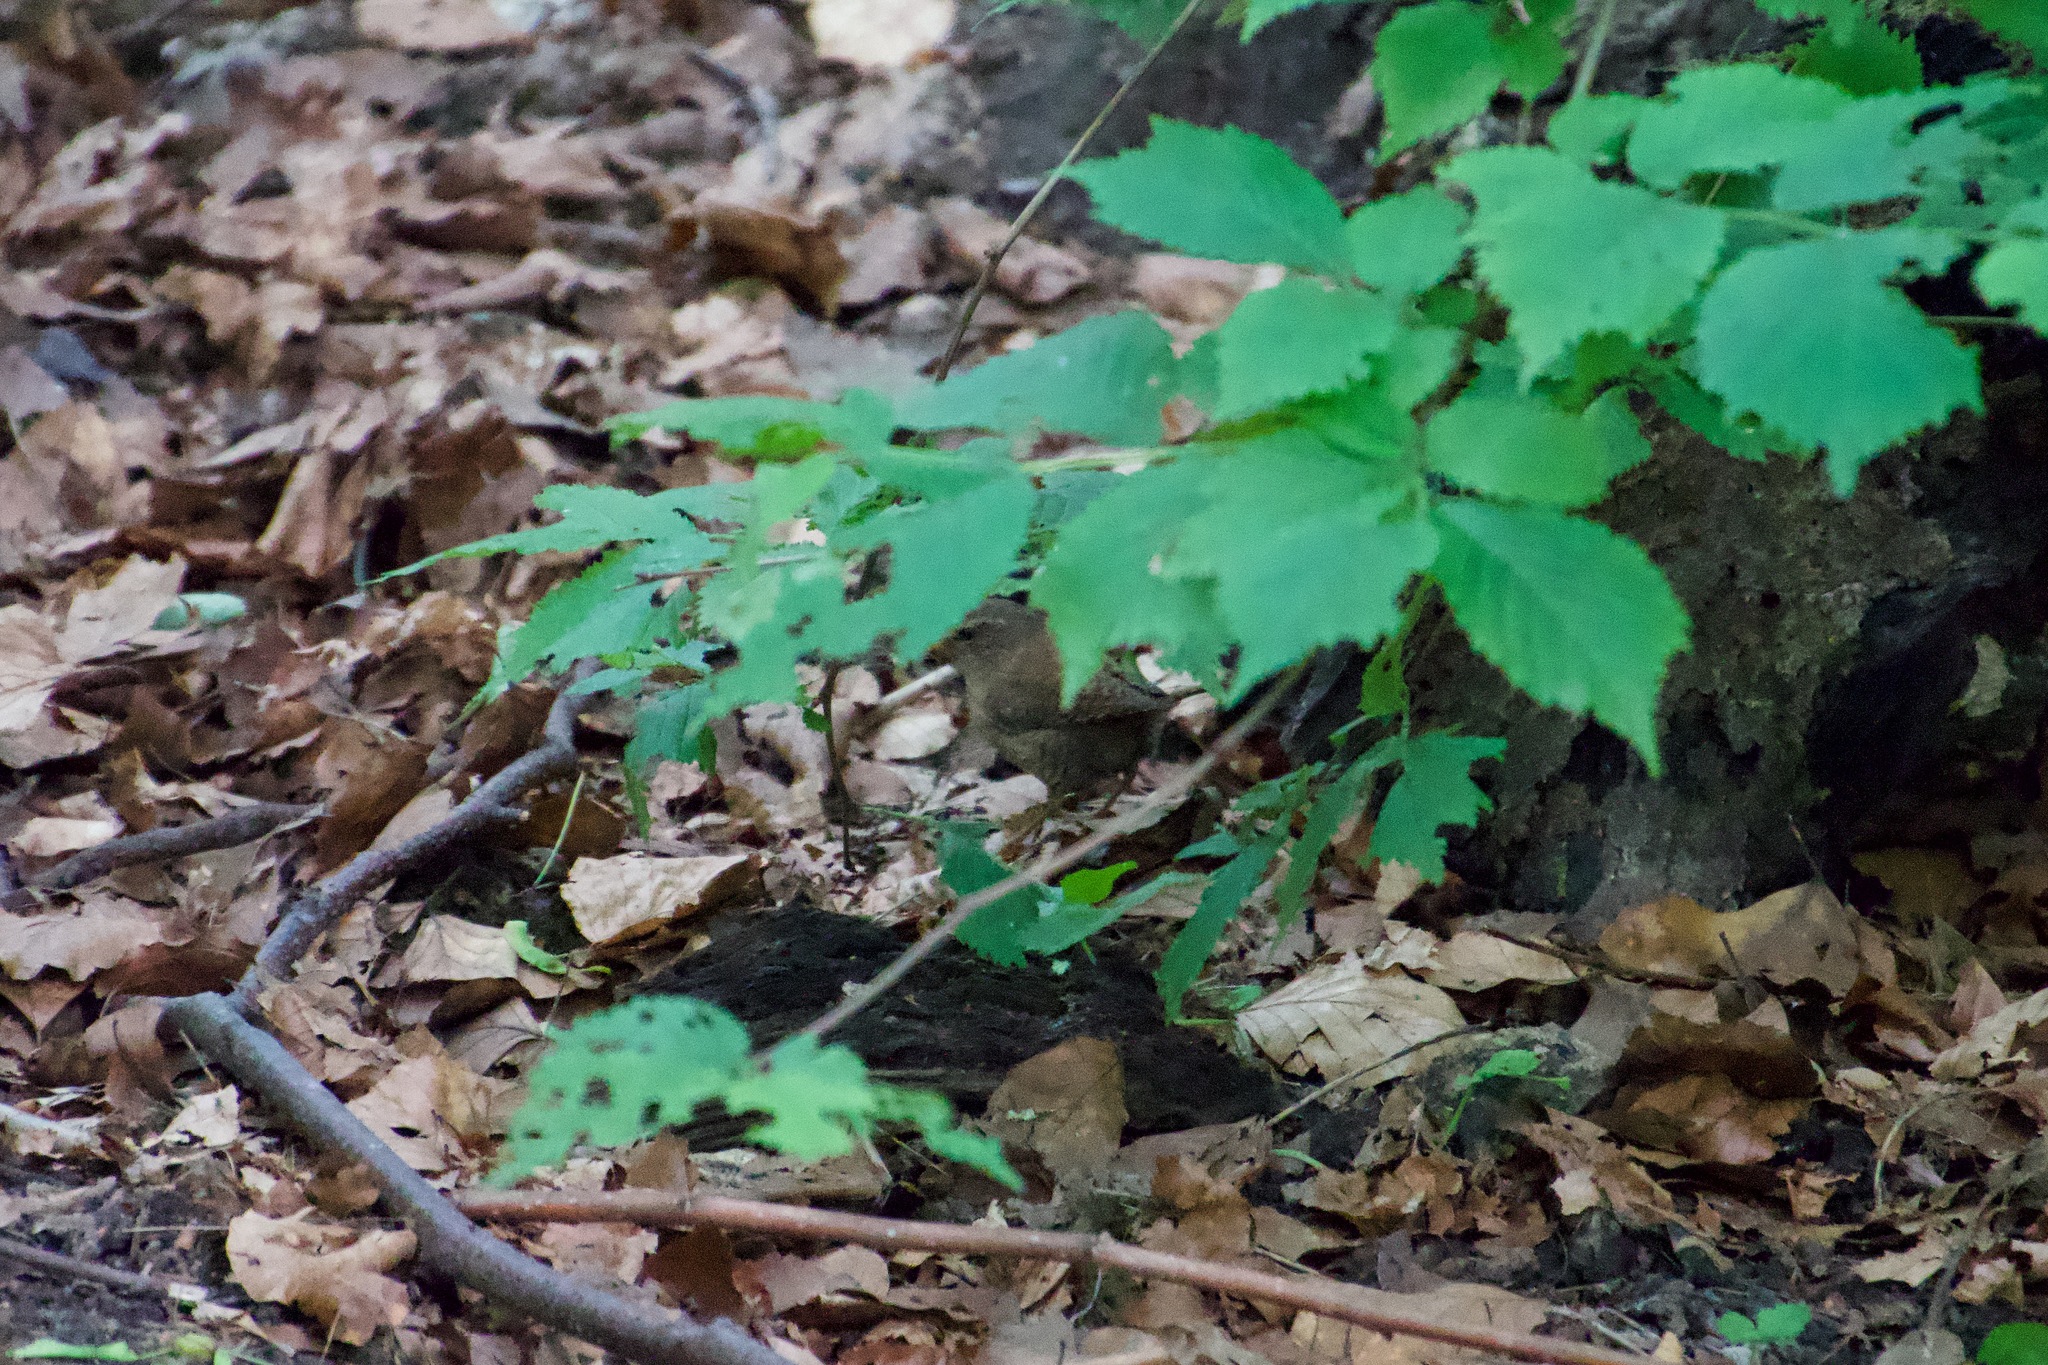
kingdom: Animalia
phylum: Chordata
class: Aves
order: Passeriformes
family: Troglodytidae
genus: Troglodytes
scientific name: Troglodytes troglodytes
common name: Eurasian wren
